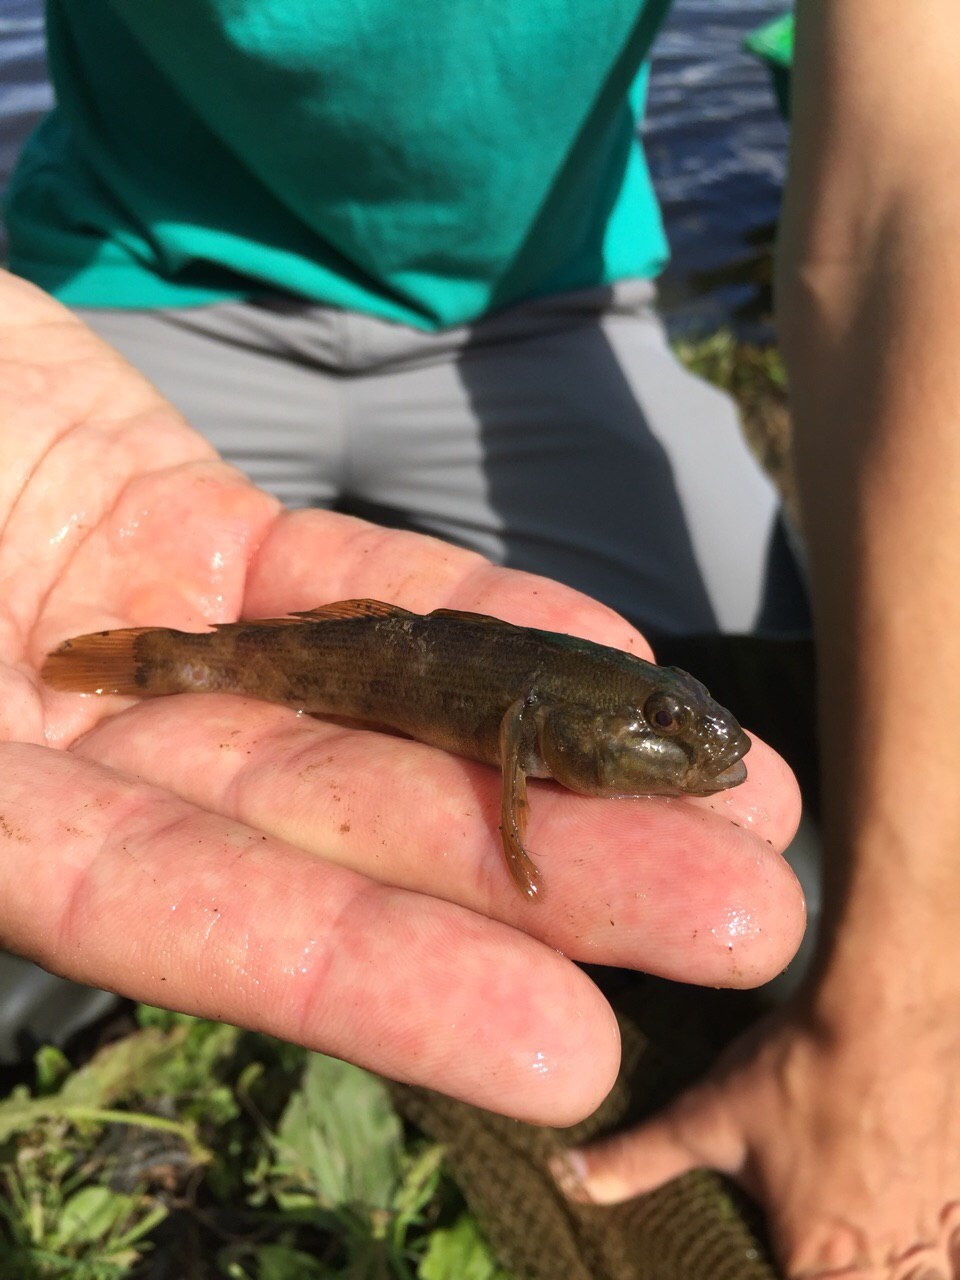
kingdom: Animalia
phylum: Chordata
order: Perciformes
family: Gobiidae
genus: Neogobius
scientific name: Neogobius melanostomus
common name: Round goby
